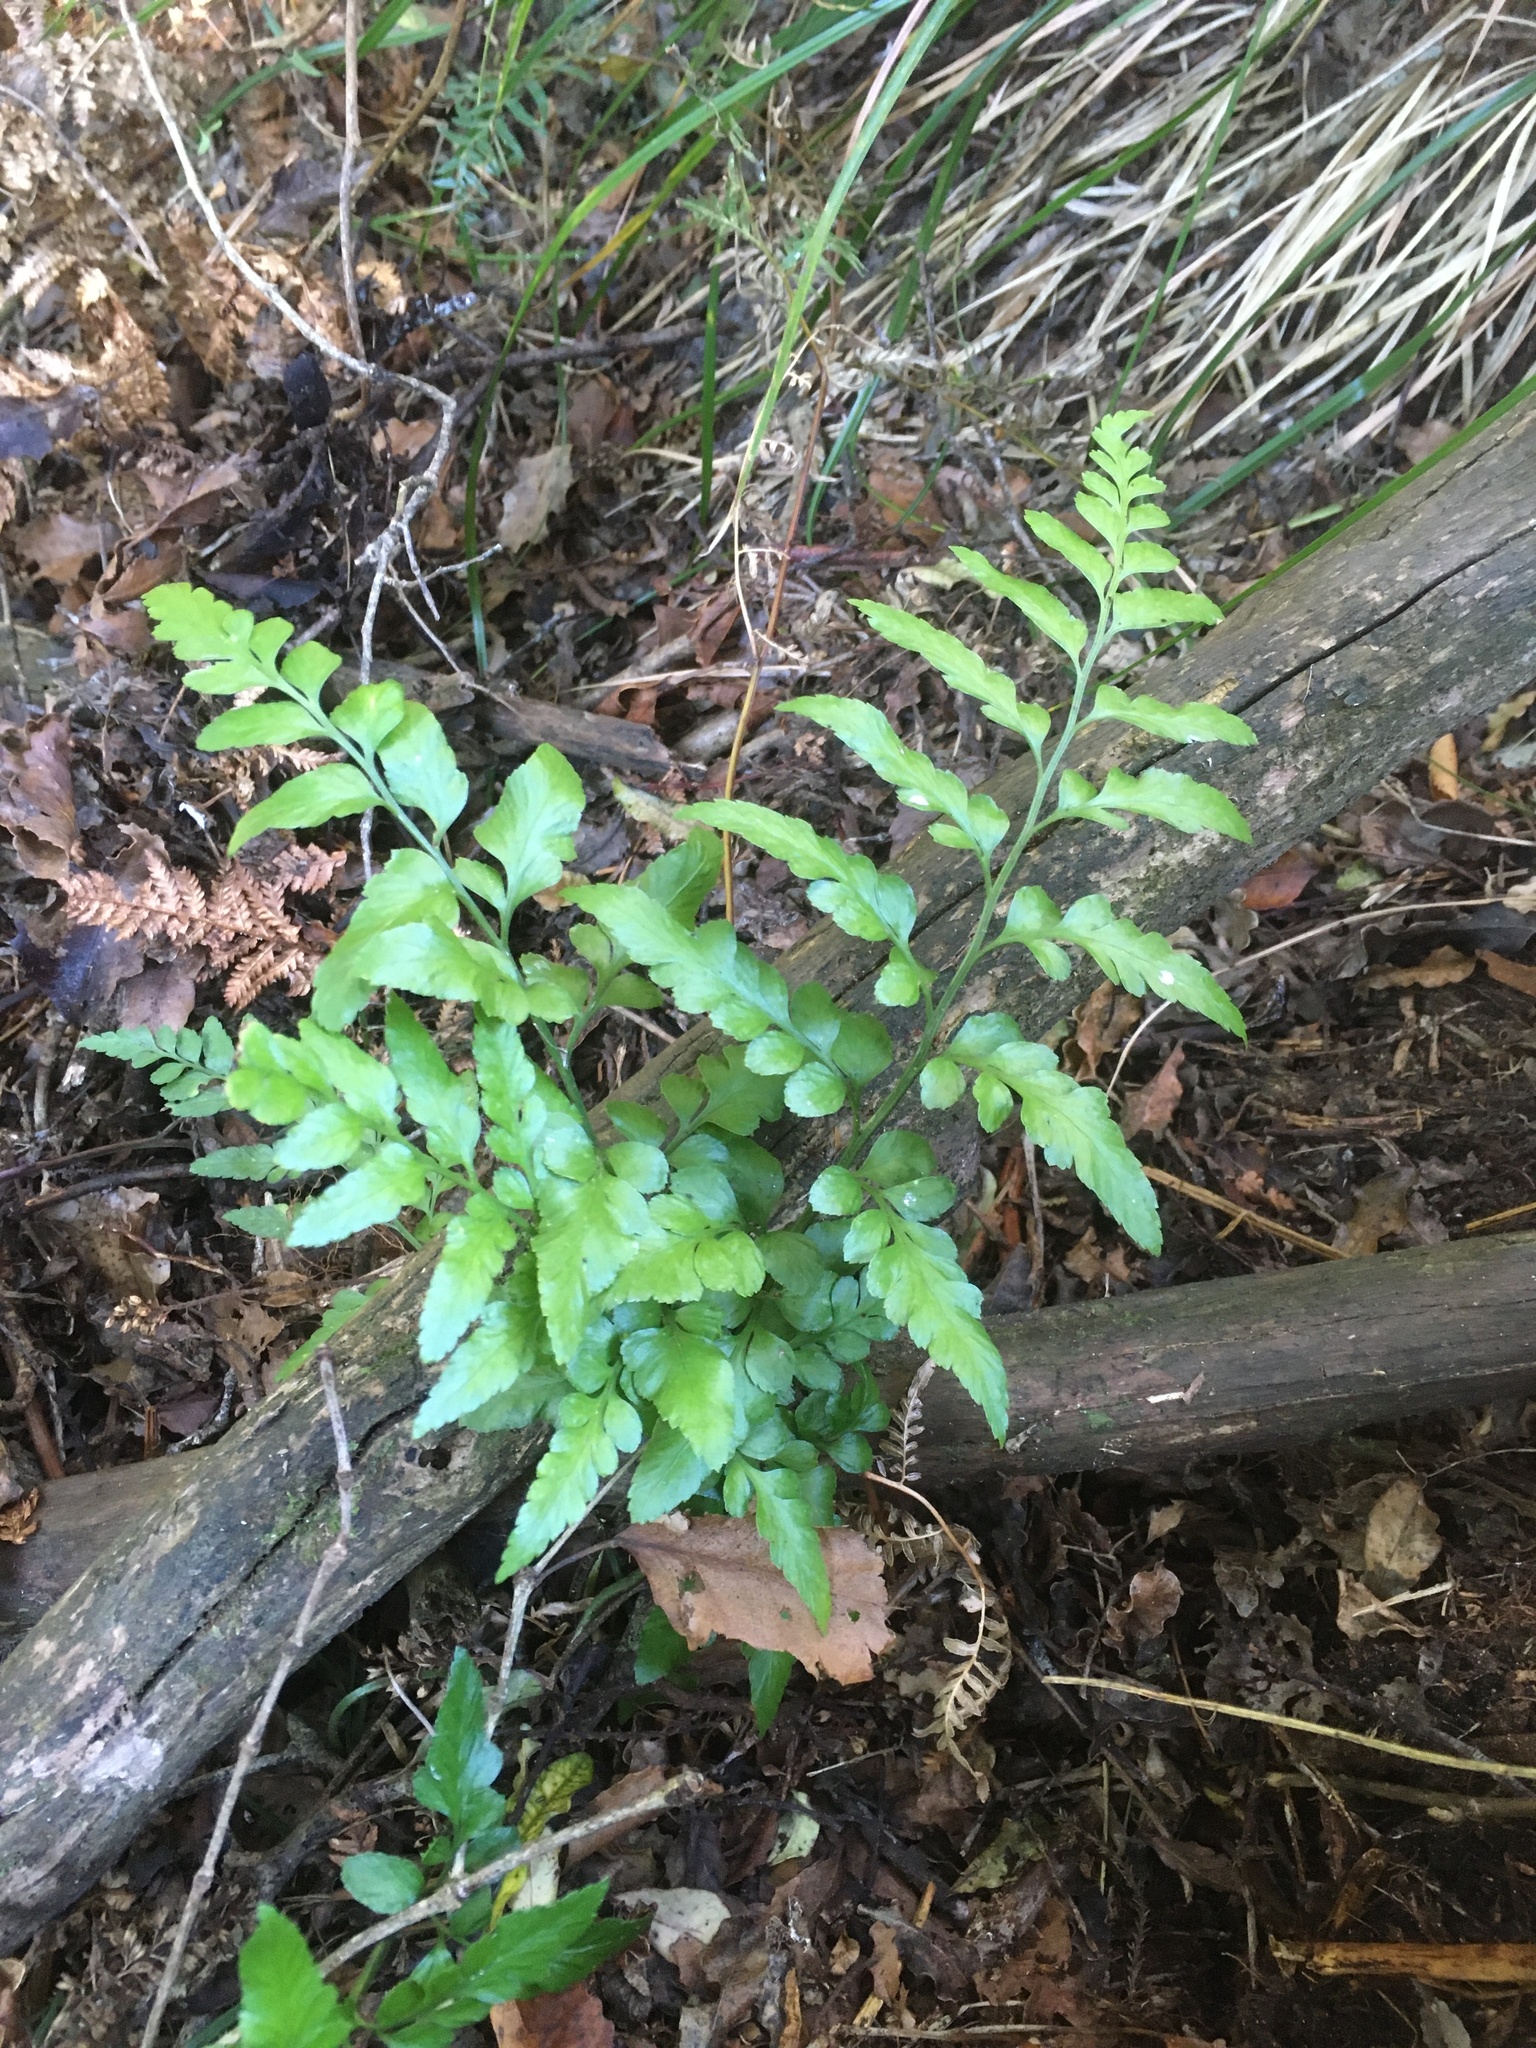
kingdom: Plantae
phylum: Tracheophyta
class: Polypodiopsida
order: Polypodiales
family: Aspleniaceae
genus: Asplenium
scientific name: Asplenium lyallii
